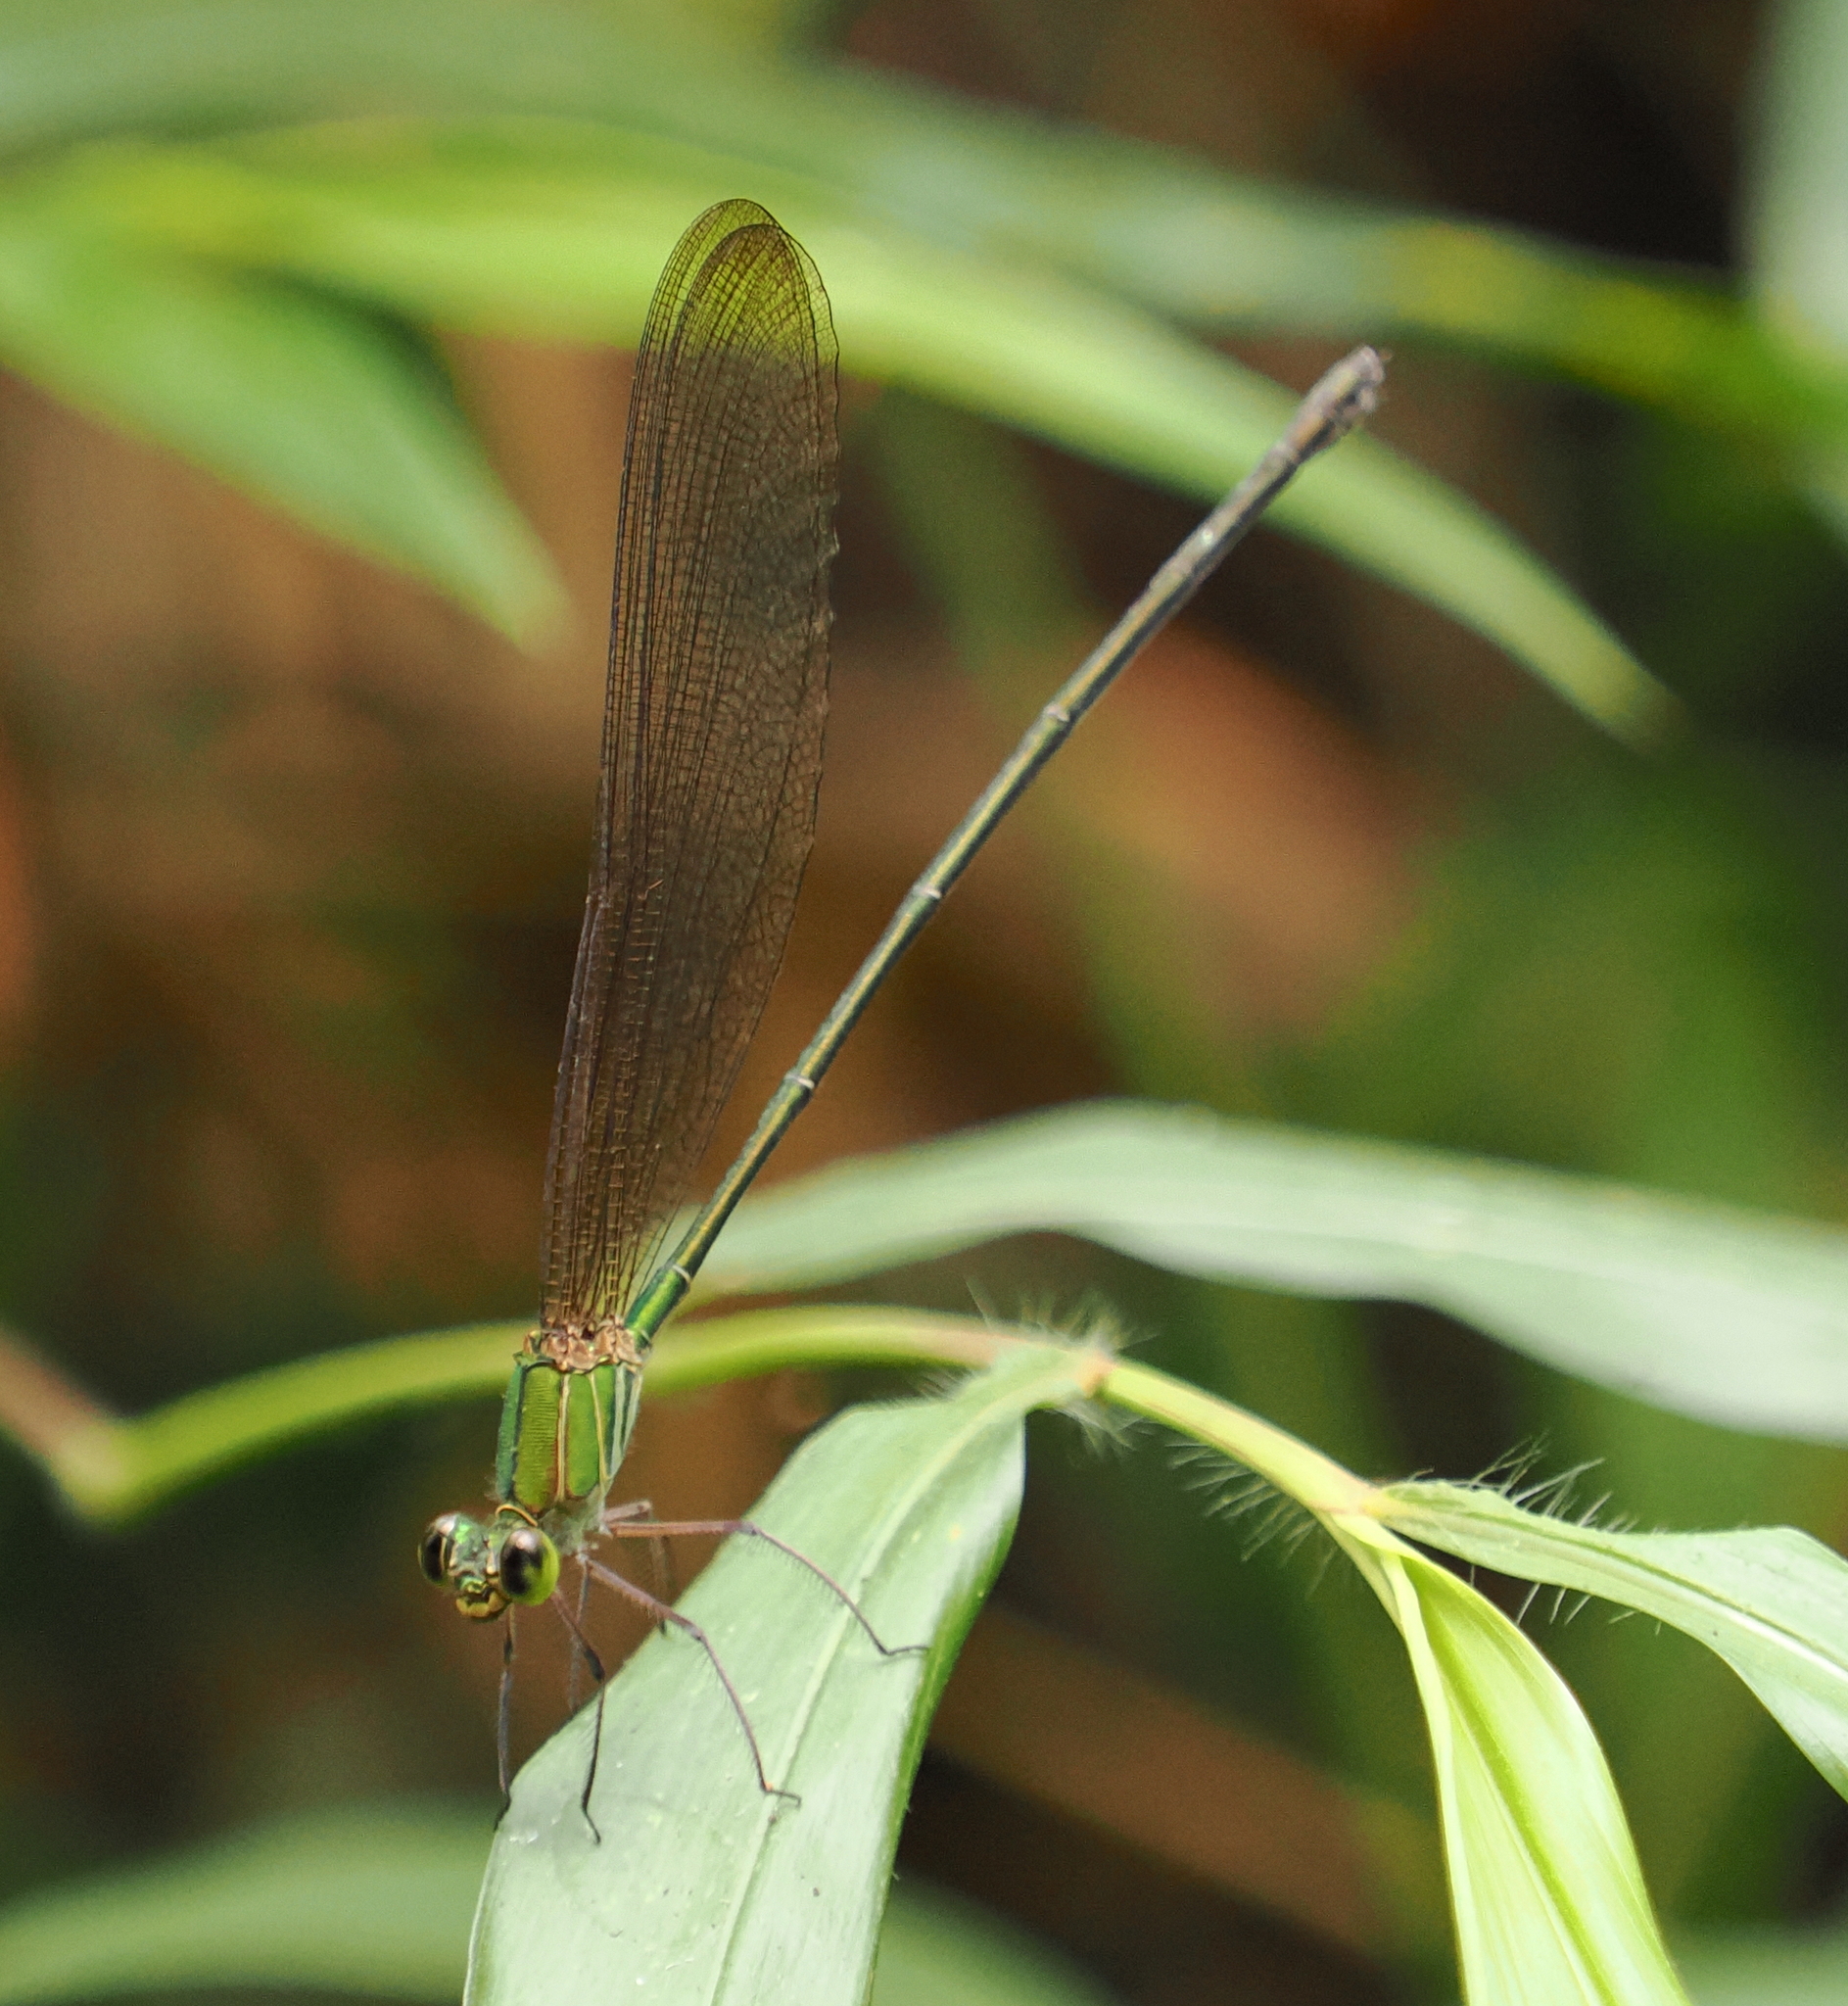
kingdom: Animalia
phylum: Arthropoda
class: Insecta
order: Odonata
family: Calopterygidae
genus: Vestalis
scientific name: Vestalis gracilis
